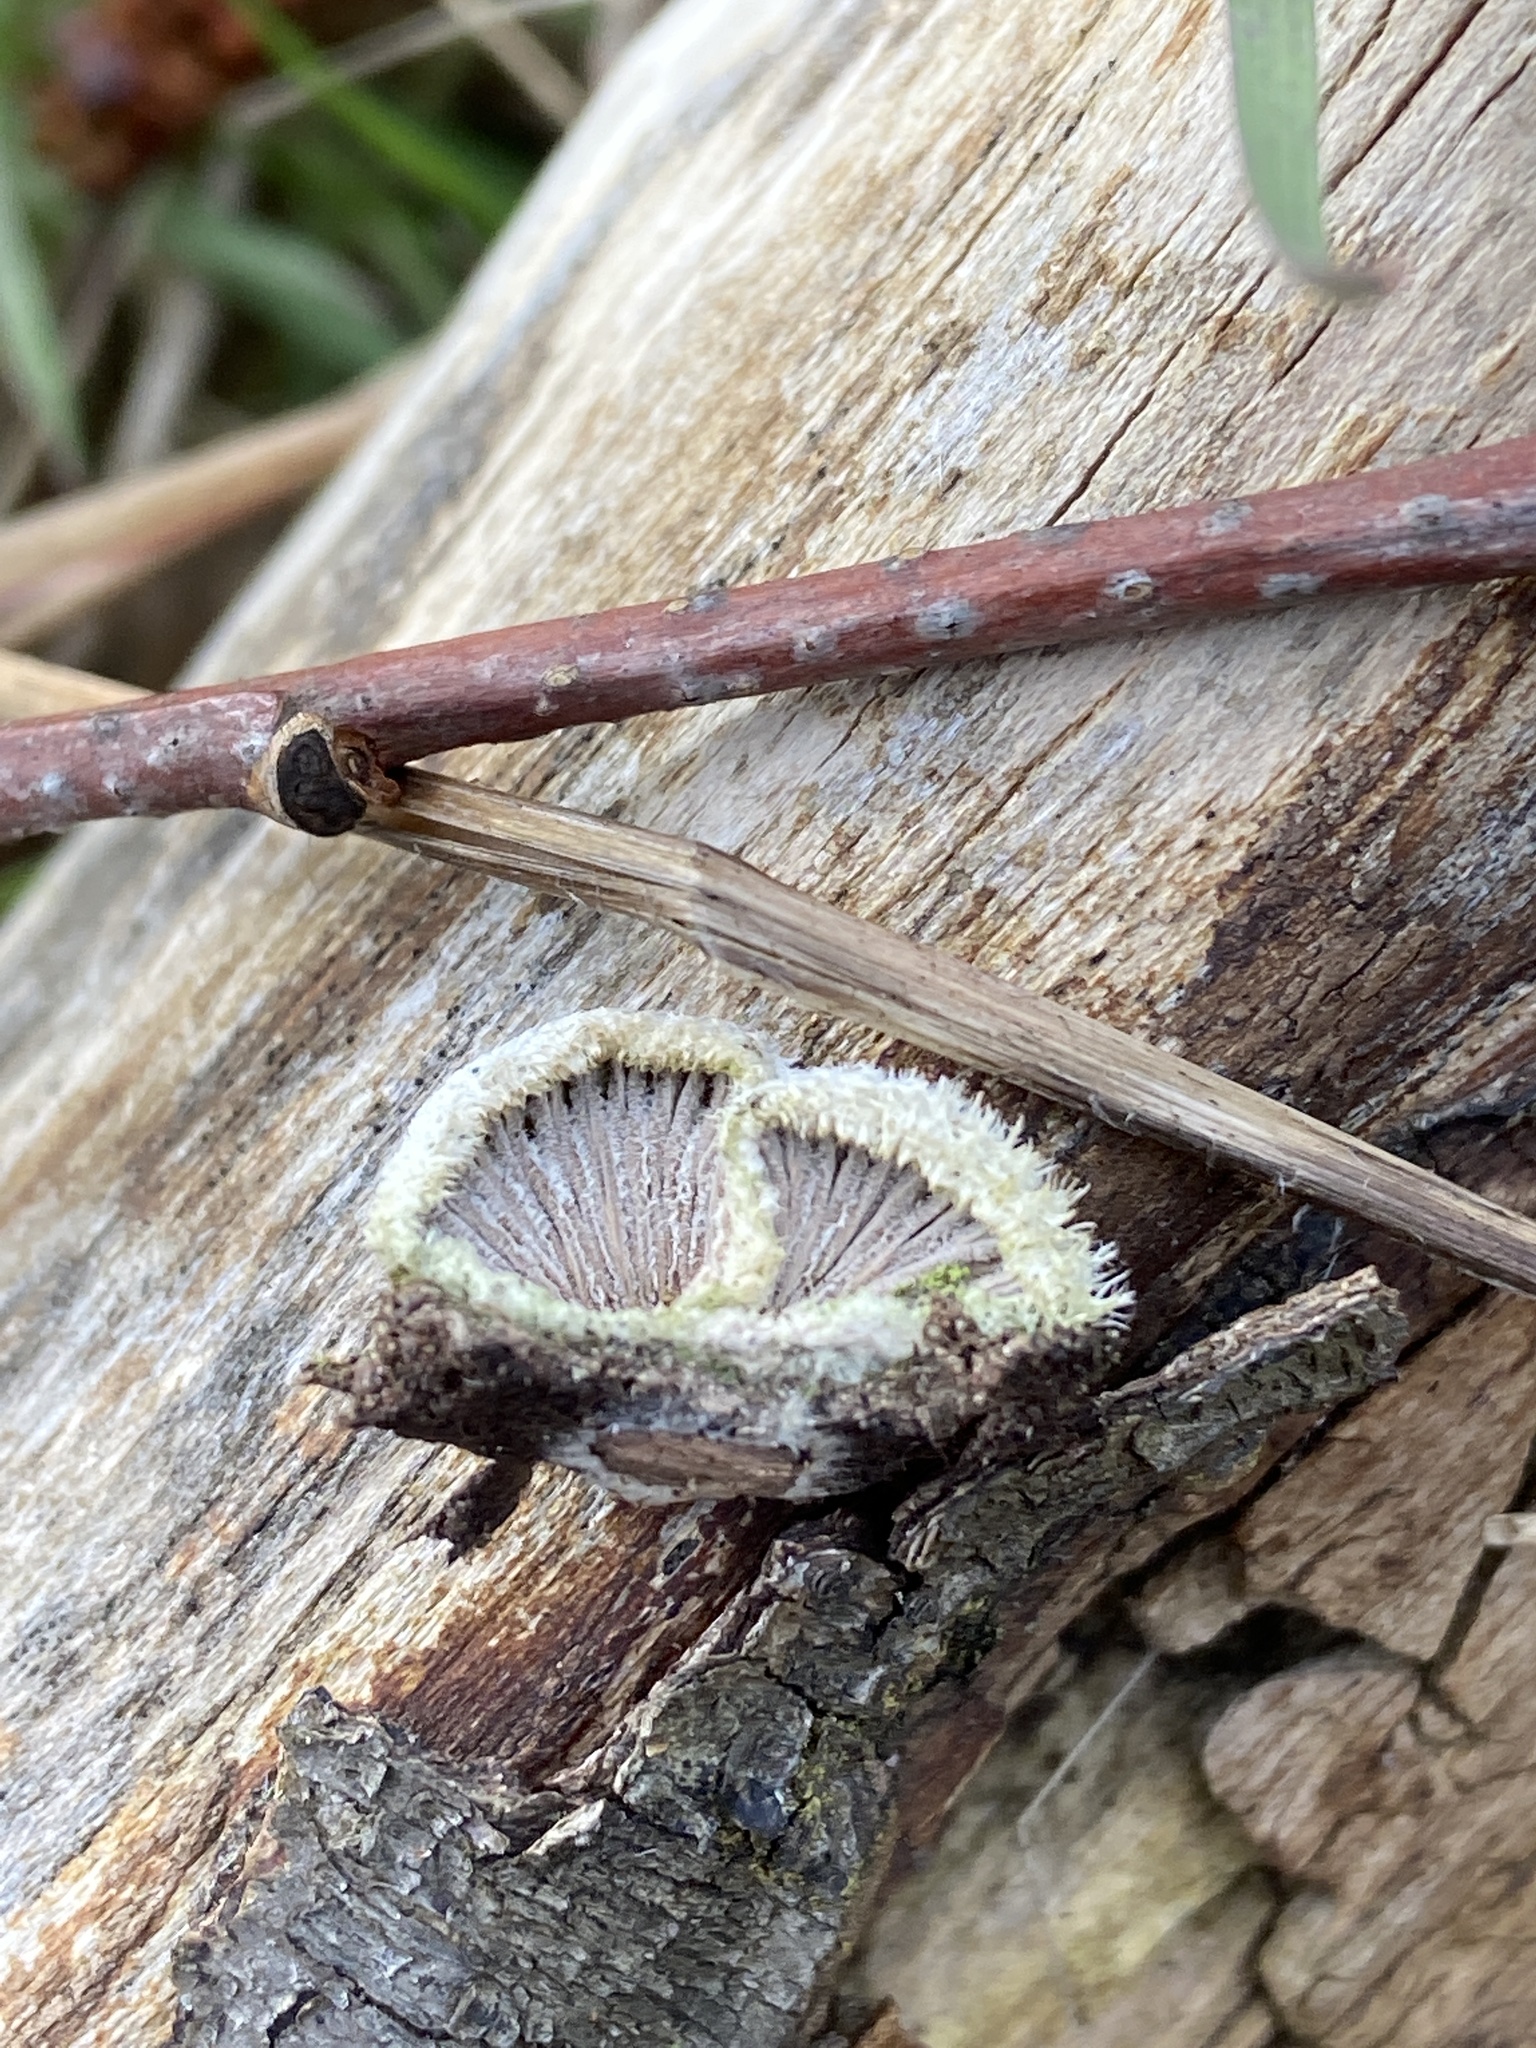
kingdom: Fungi
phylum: Basidiomycota
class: Agaricomycetes
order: Agaricales
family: Schizophyllaceae
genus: Schizophyllum
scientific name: Schizophyllum commune
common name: Common porecrust
